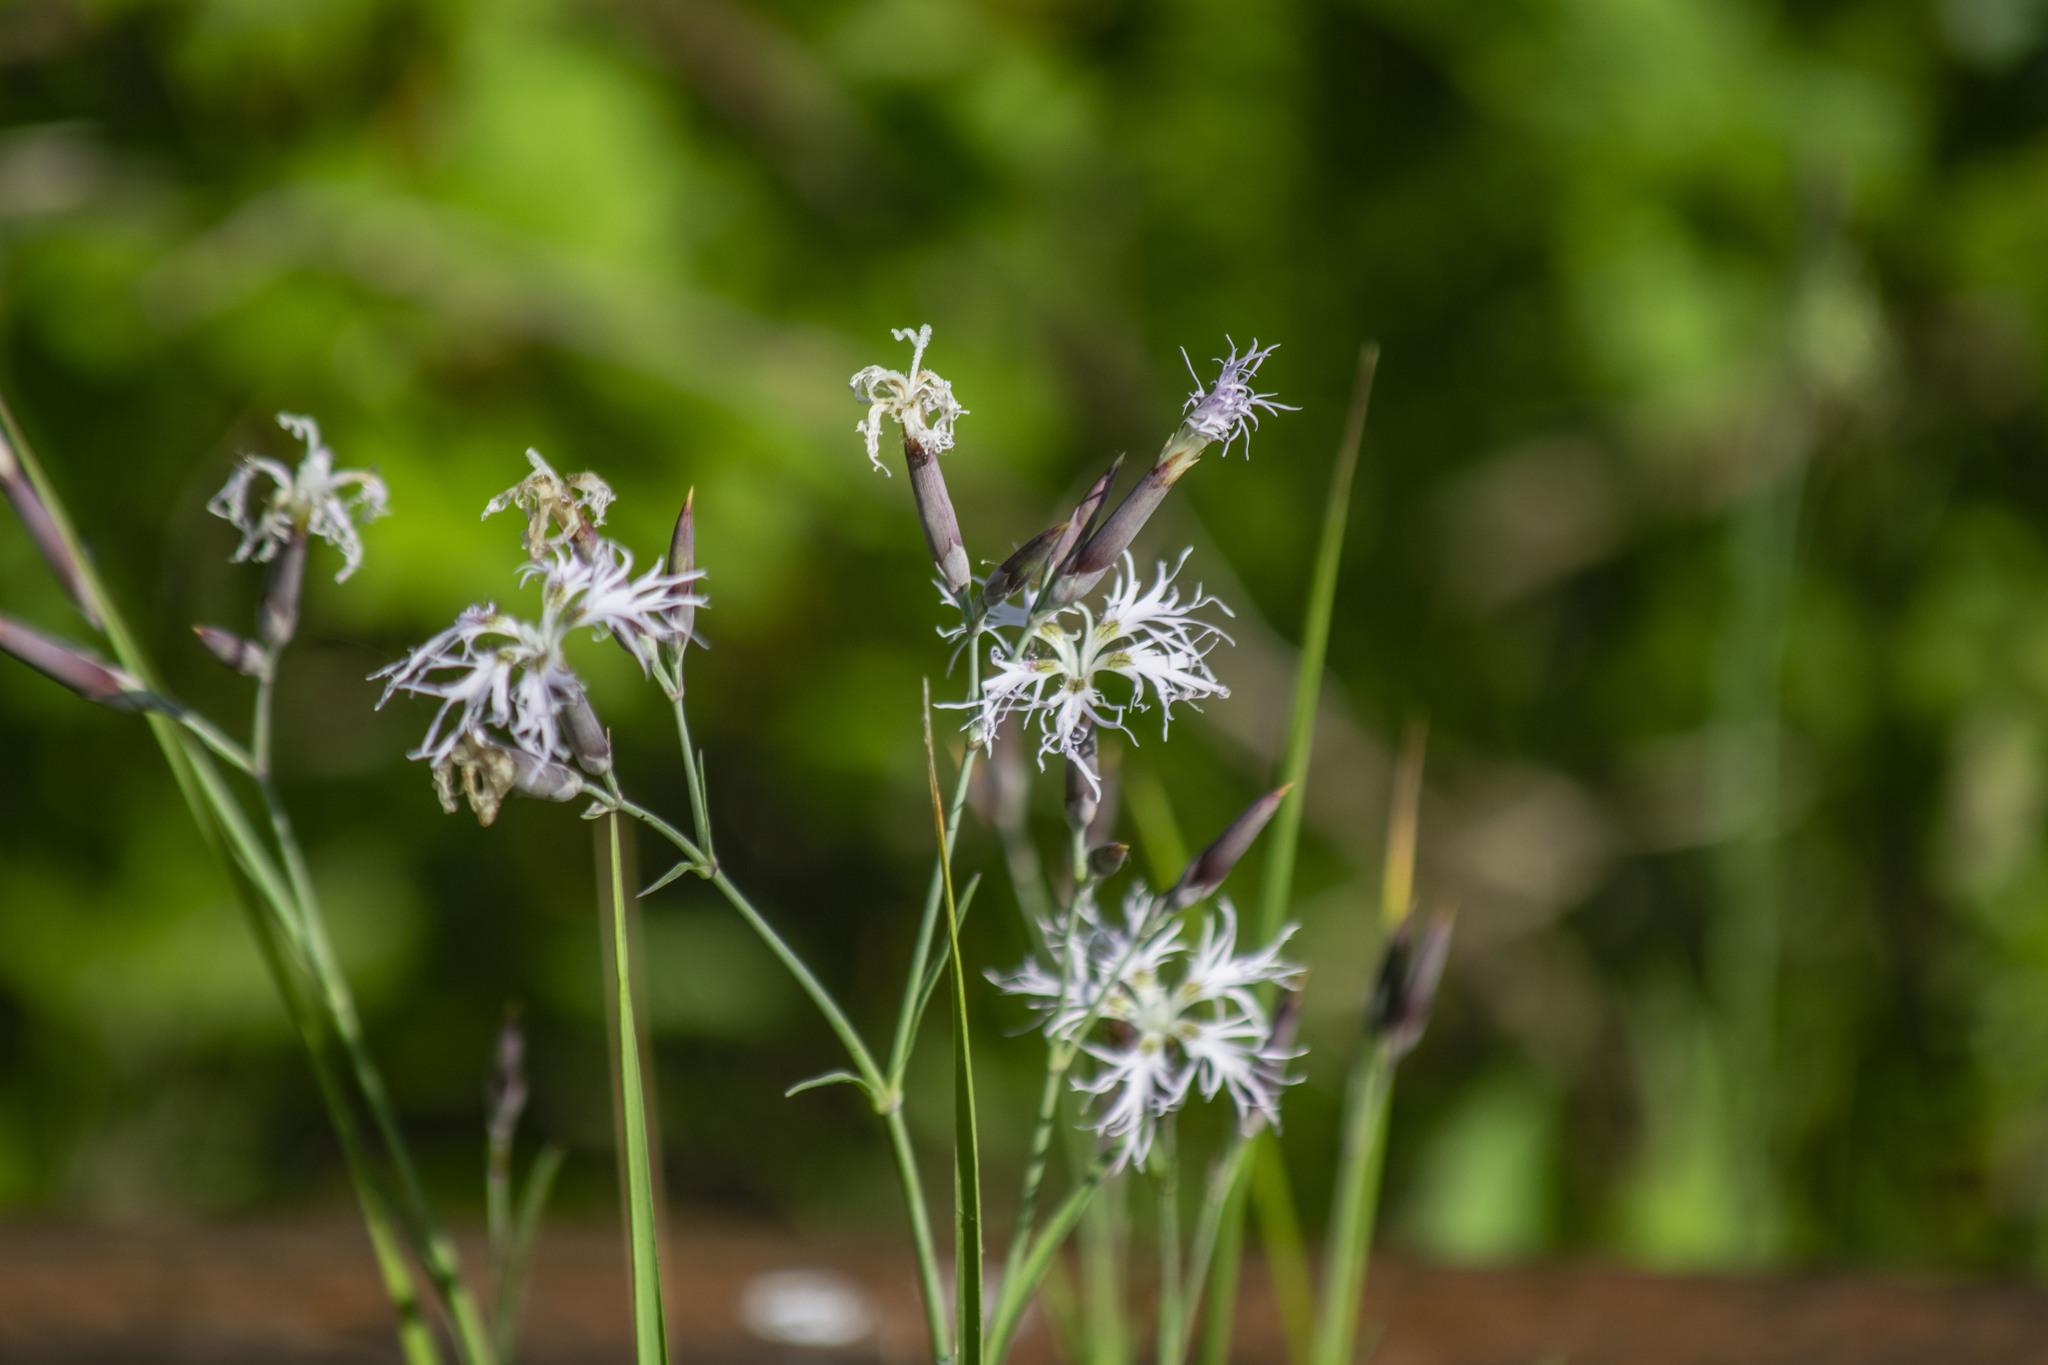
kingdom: Plantae
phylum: Tracheophyta
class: Magnoliopsida
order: Caryophyllales
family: Caryophyllaceae
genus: Dianthus
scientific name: Dianthus superbus
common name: Fringed pink
